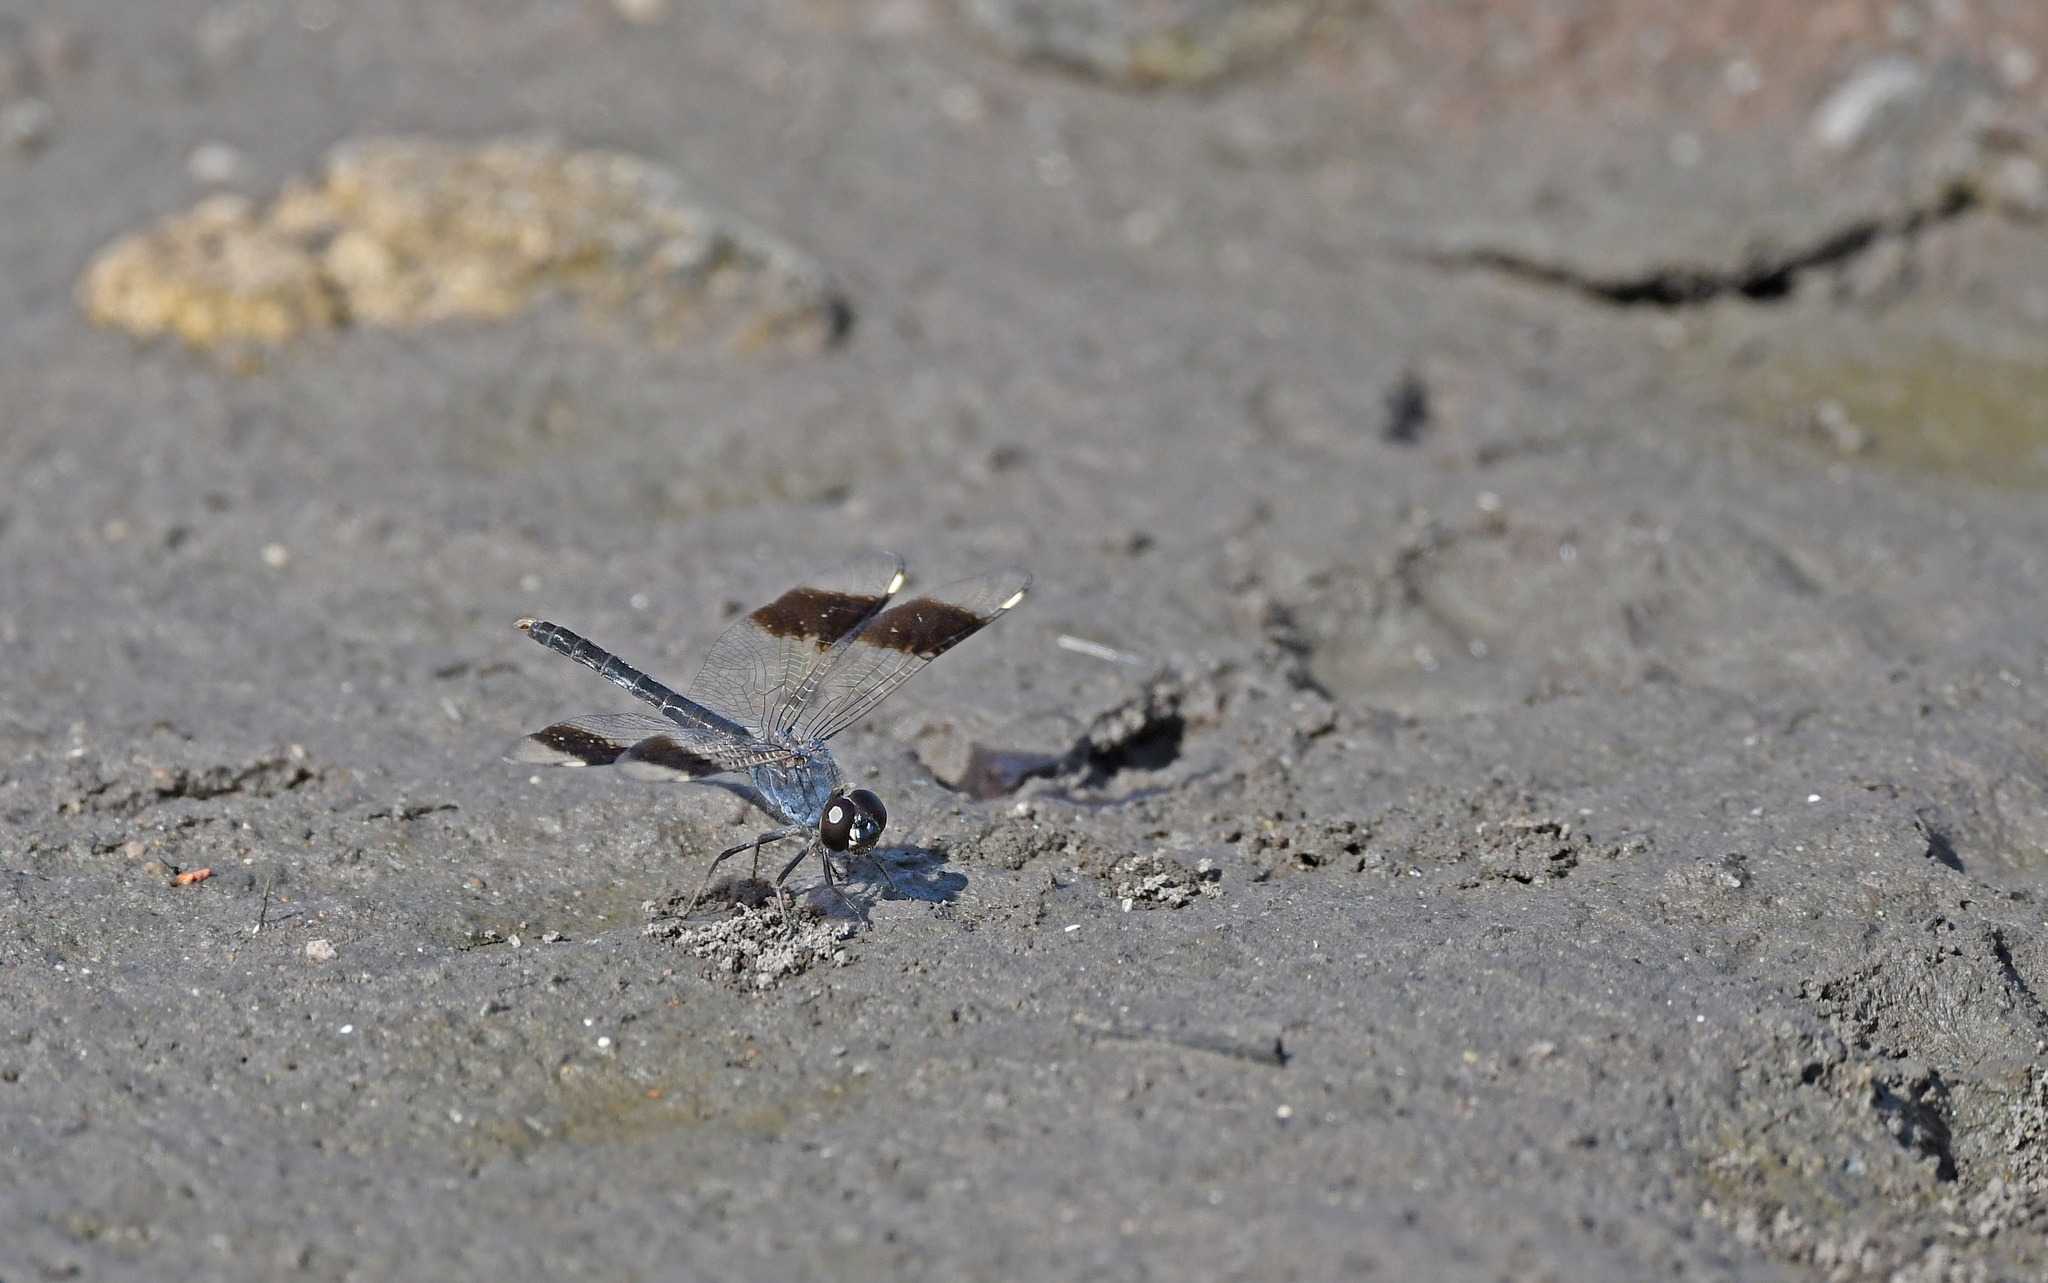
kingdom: Animalia
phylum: Arthropoda
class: Insecta
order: Odonata
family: Libellulidae
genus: Brachythemis
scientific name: Brachythemis impartita
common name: Banded groundling
